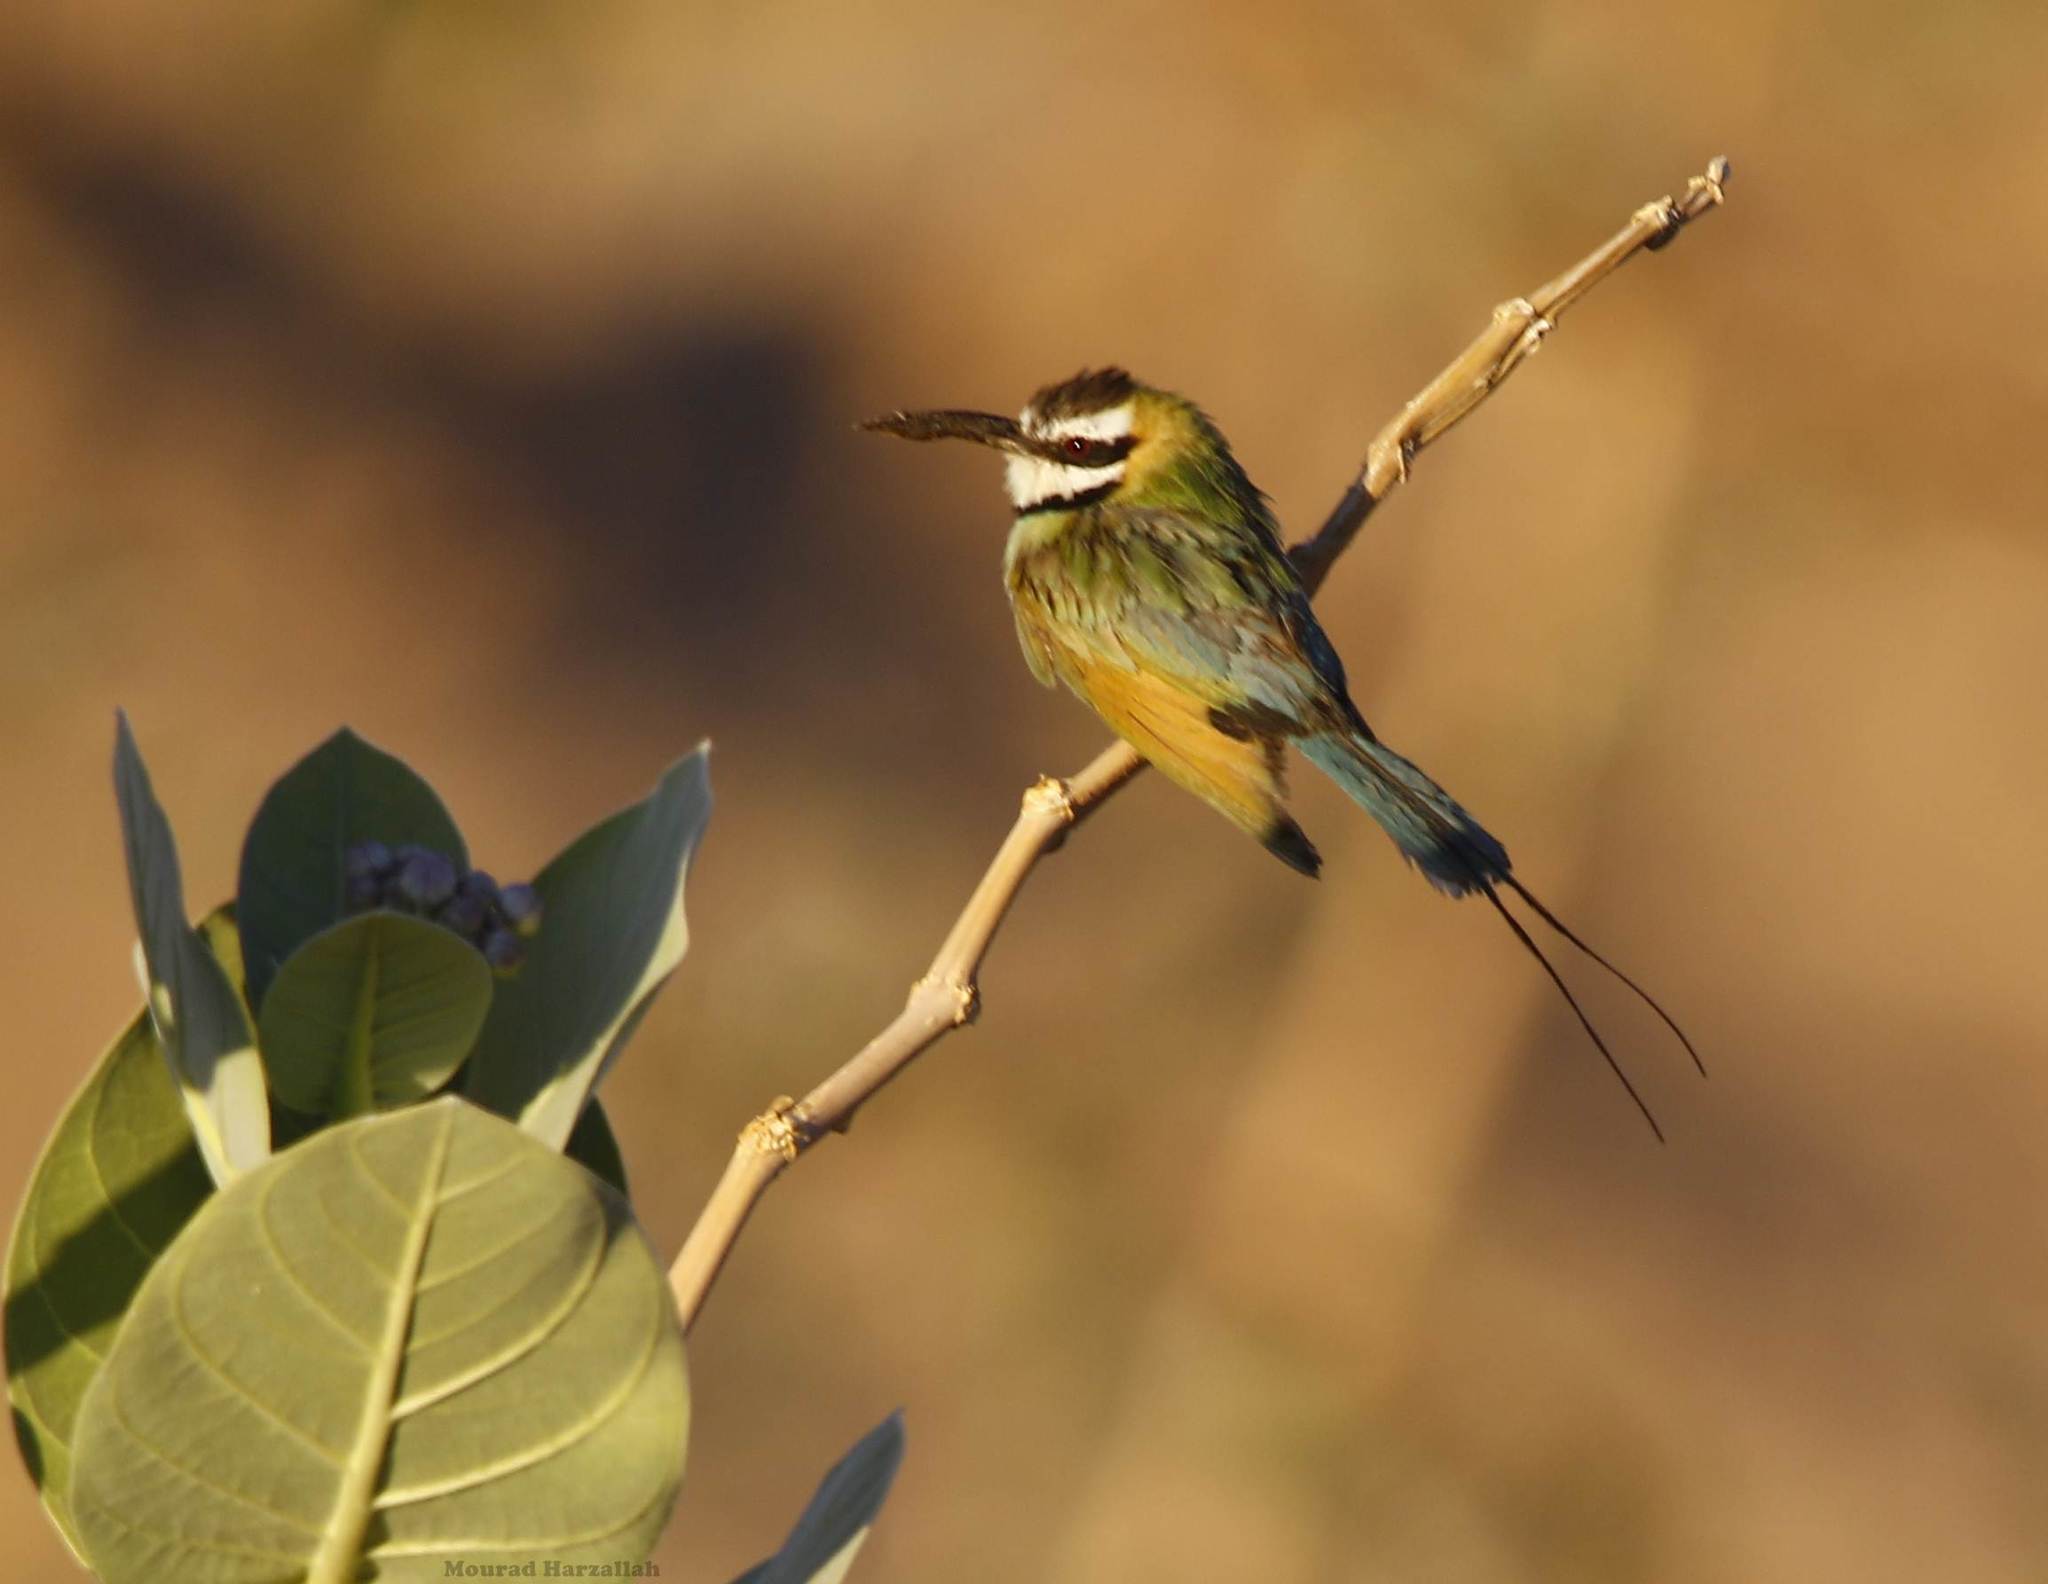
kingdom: Animalia
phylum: Chordata
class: Aves
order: Coraciiformes
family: Meropidae
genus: Merops
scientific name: Merops albicollis
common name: White-throated bee-eater
